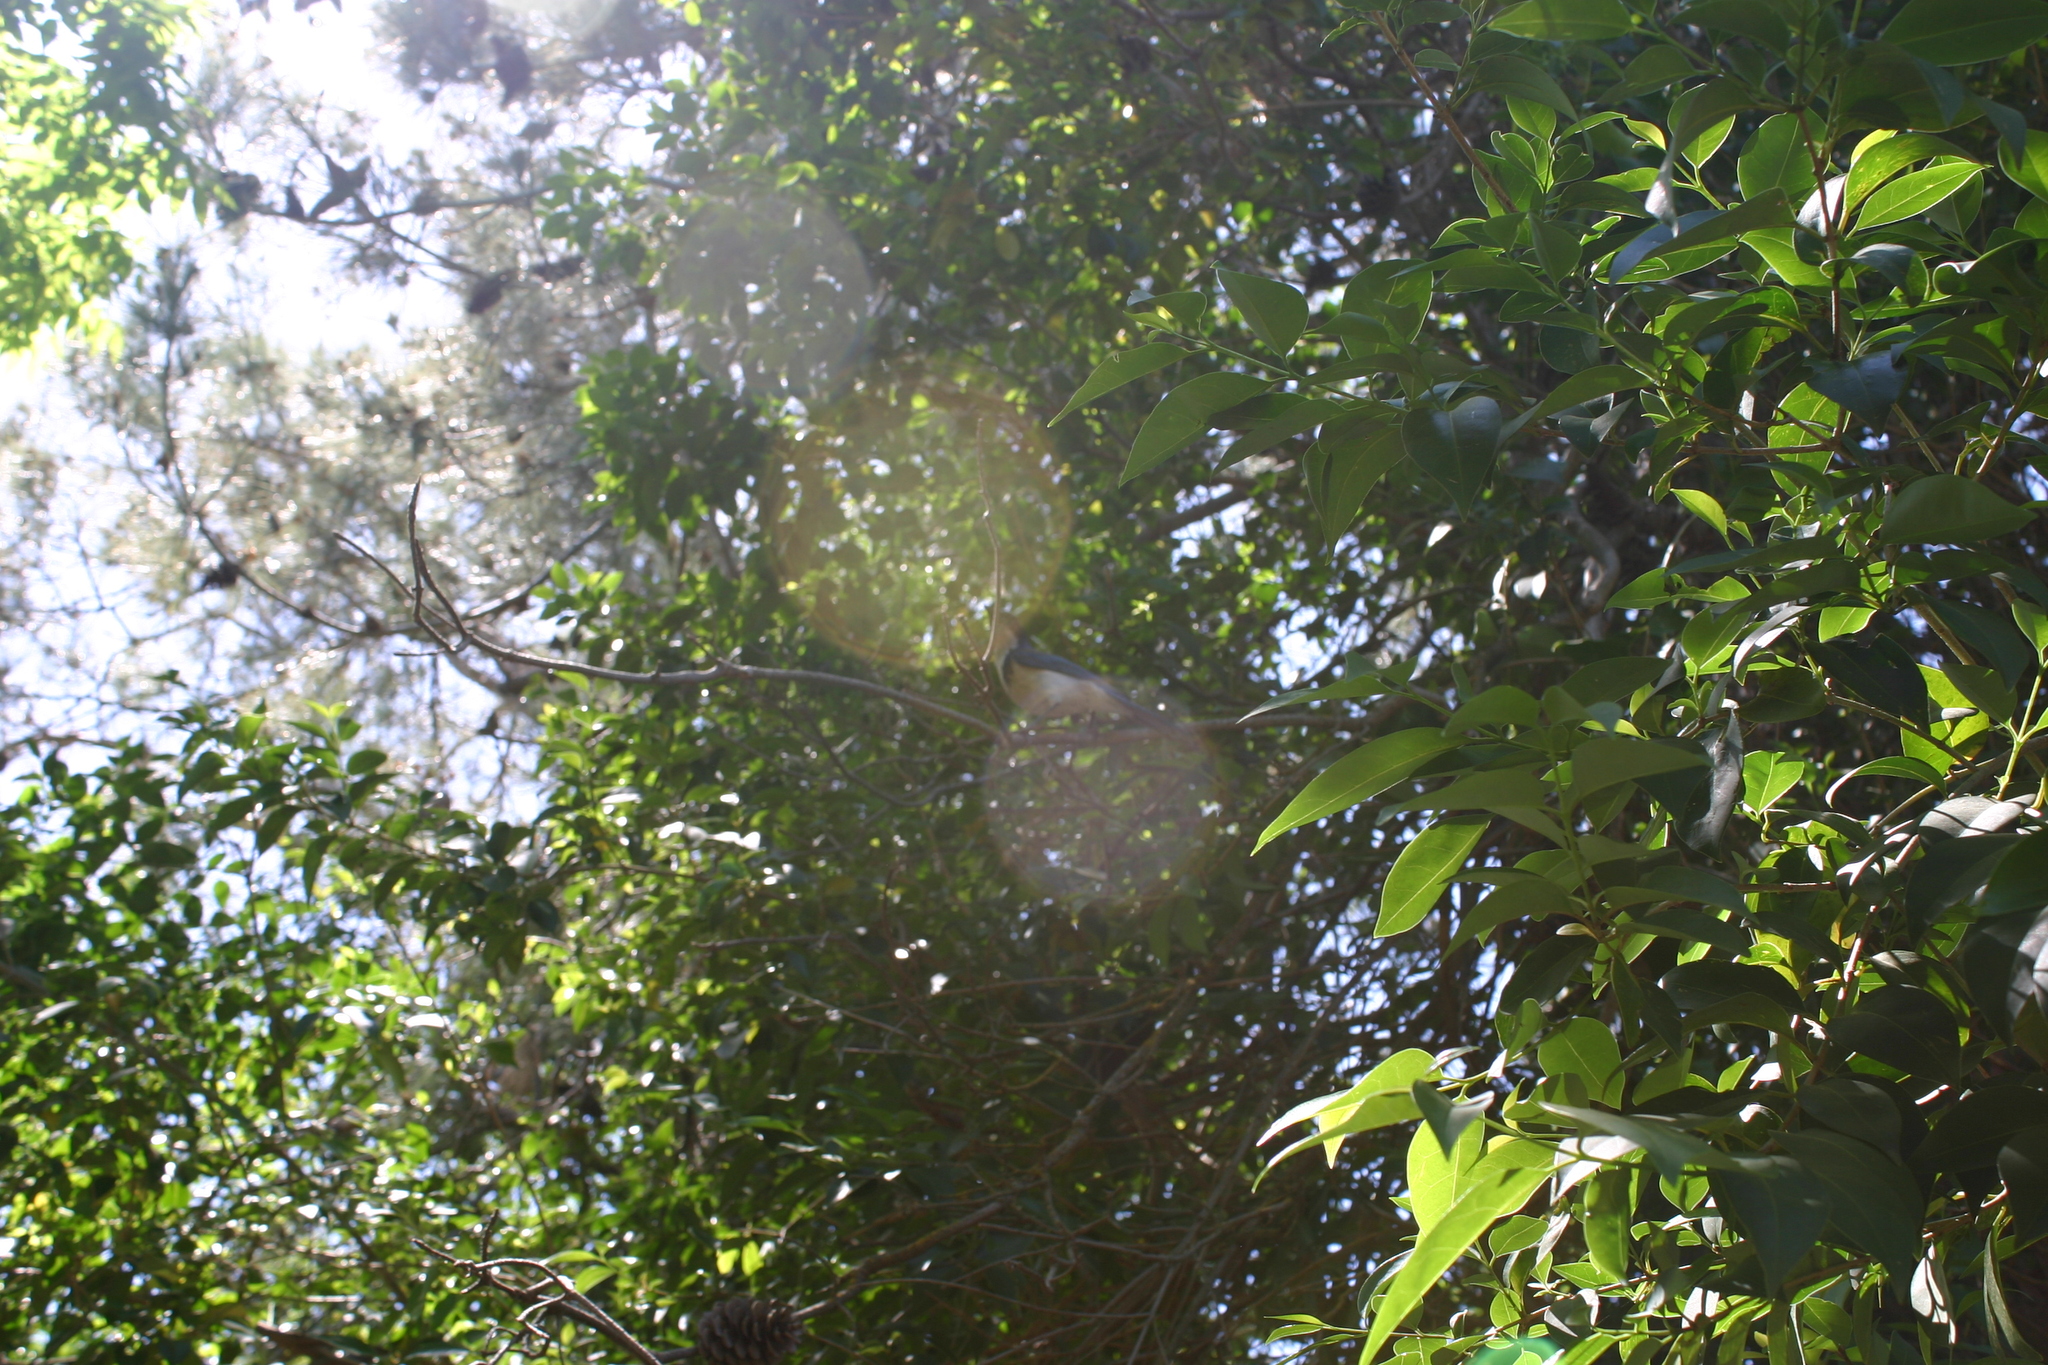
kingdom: Animalia
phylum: Chordata
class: Aves
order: Passeriformes
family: Corvidae
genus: Aphelocoma
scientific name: Aphelocoma californica
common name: California scrub-jay
